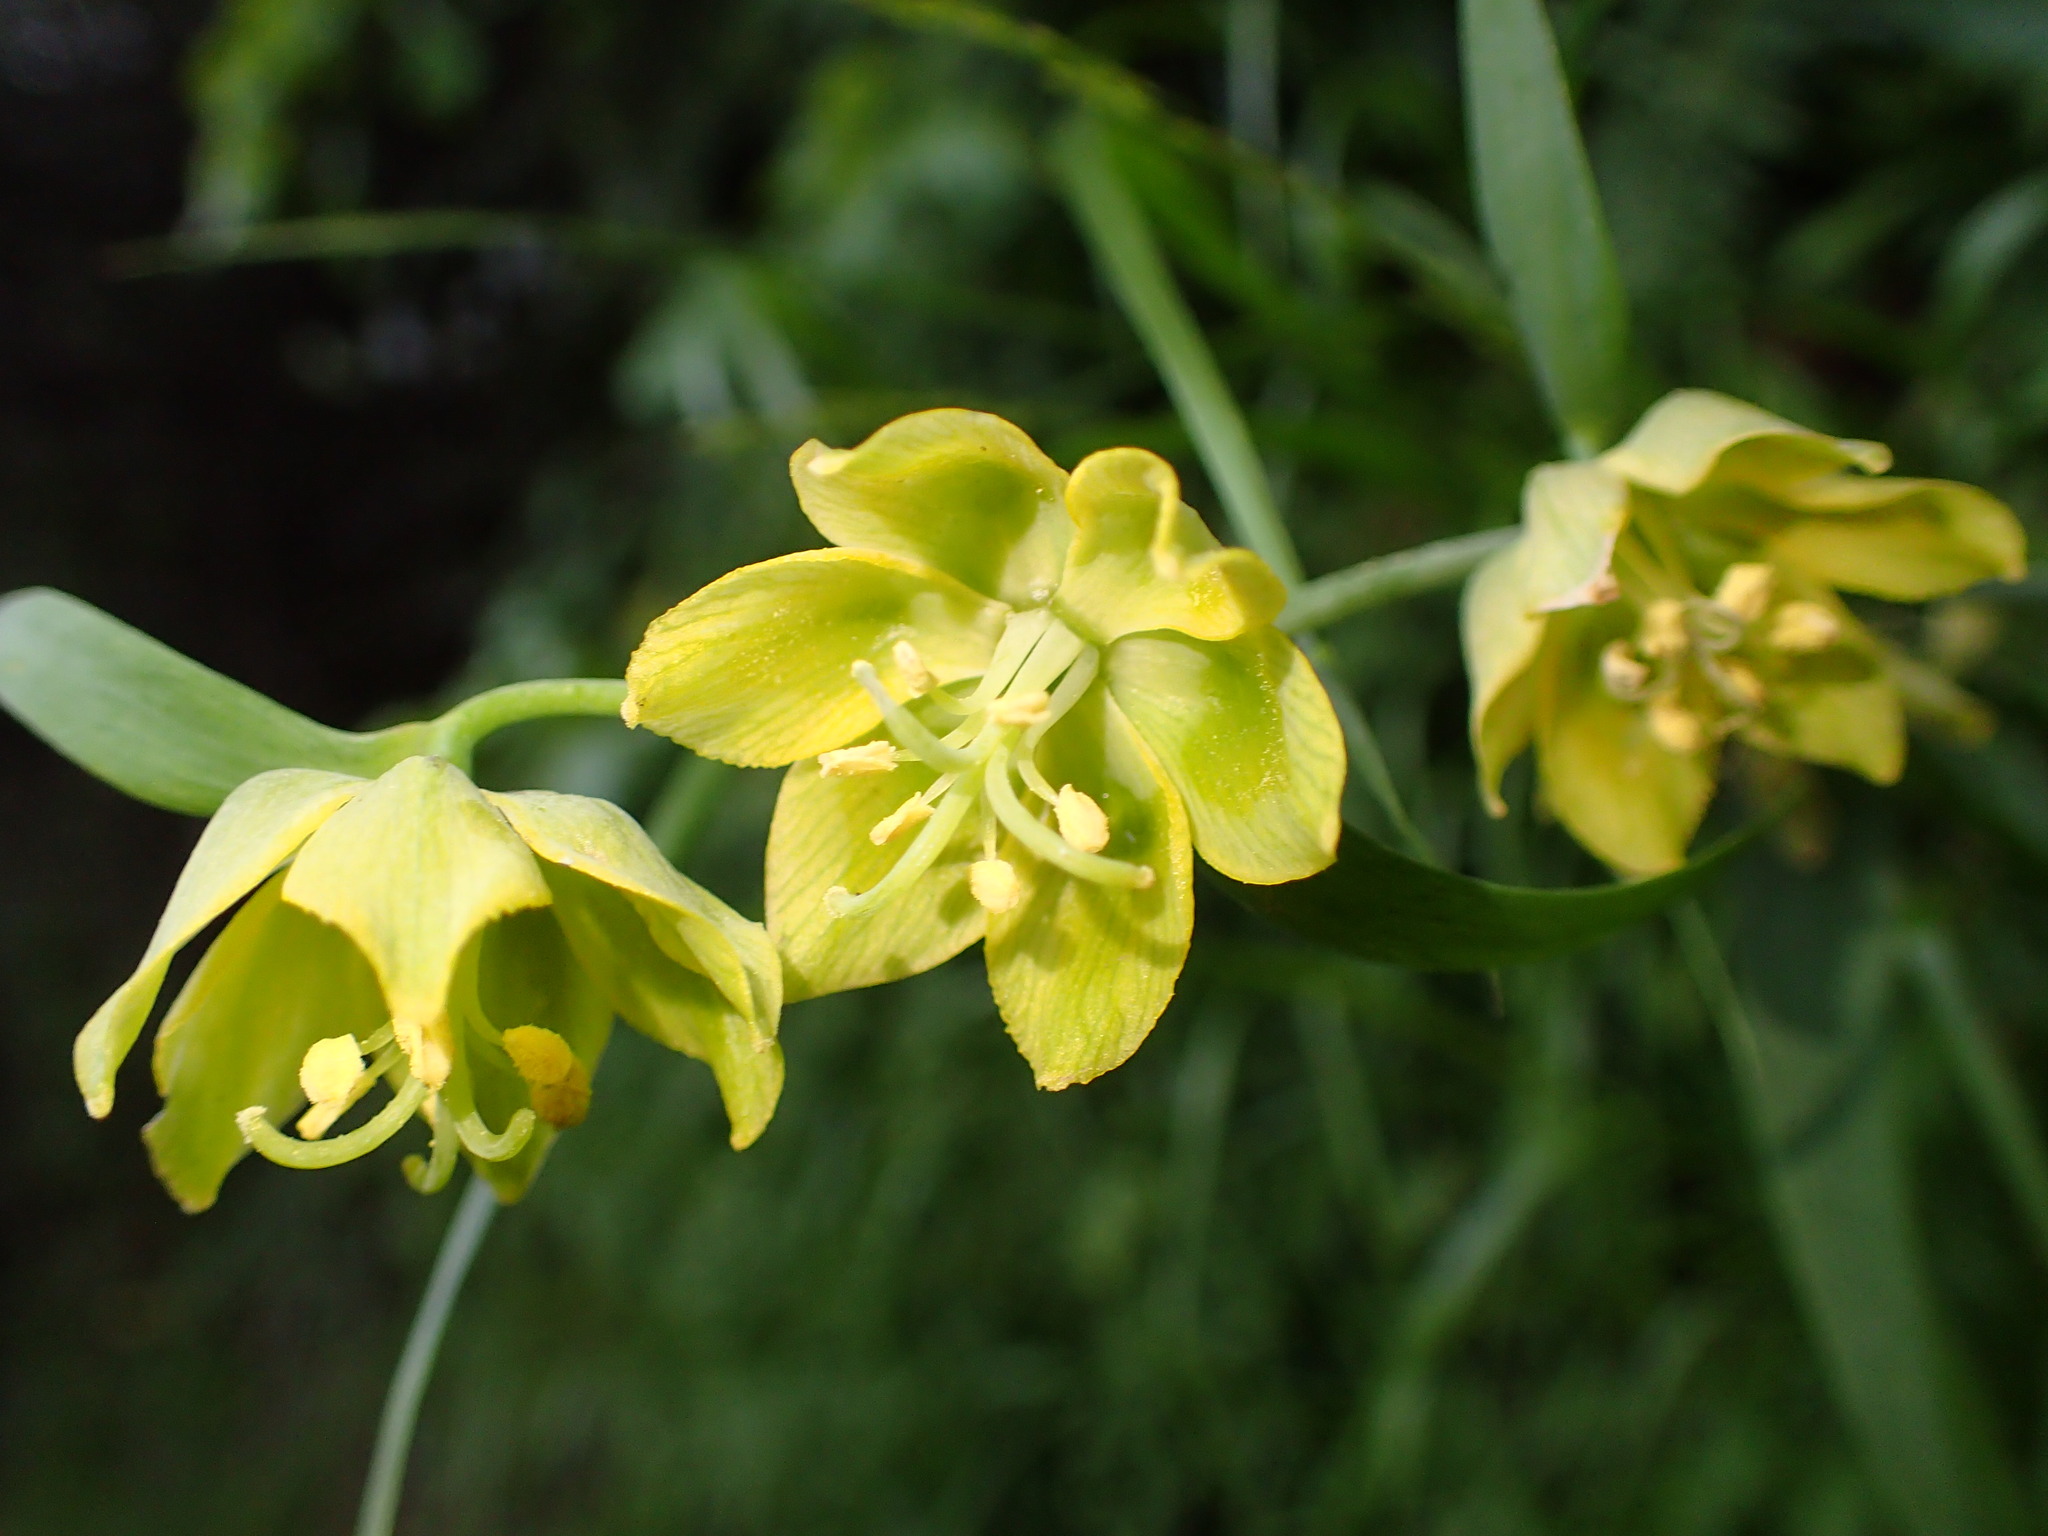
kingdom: Plantae
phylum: Tracheophyta
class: Liliopsida
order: Liliales
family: Liliaceae
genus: Fritillaria
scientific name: Fritillaria ojaiensis
